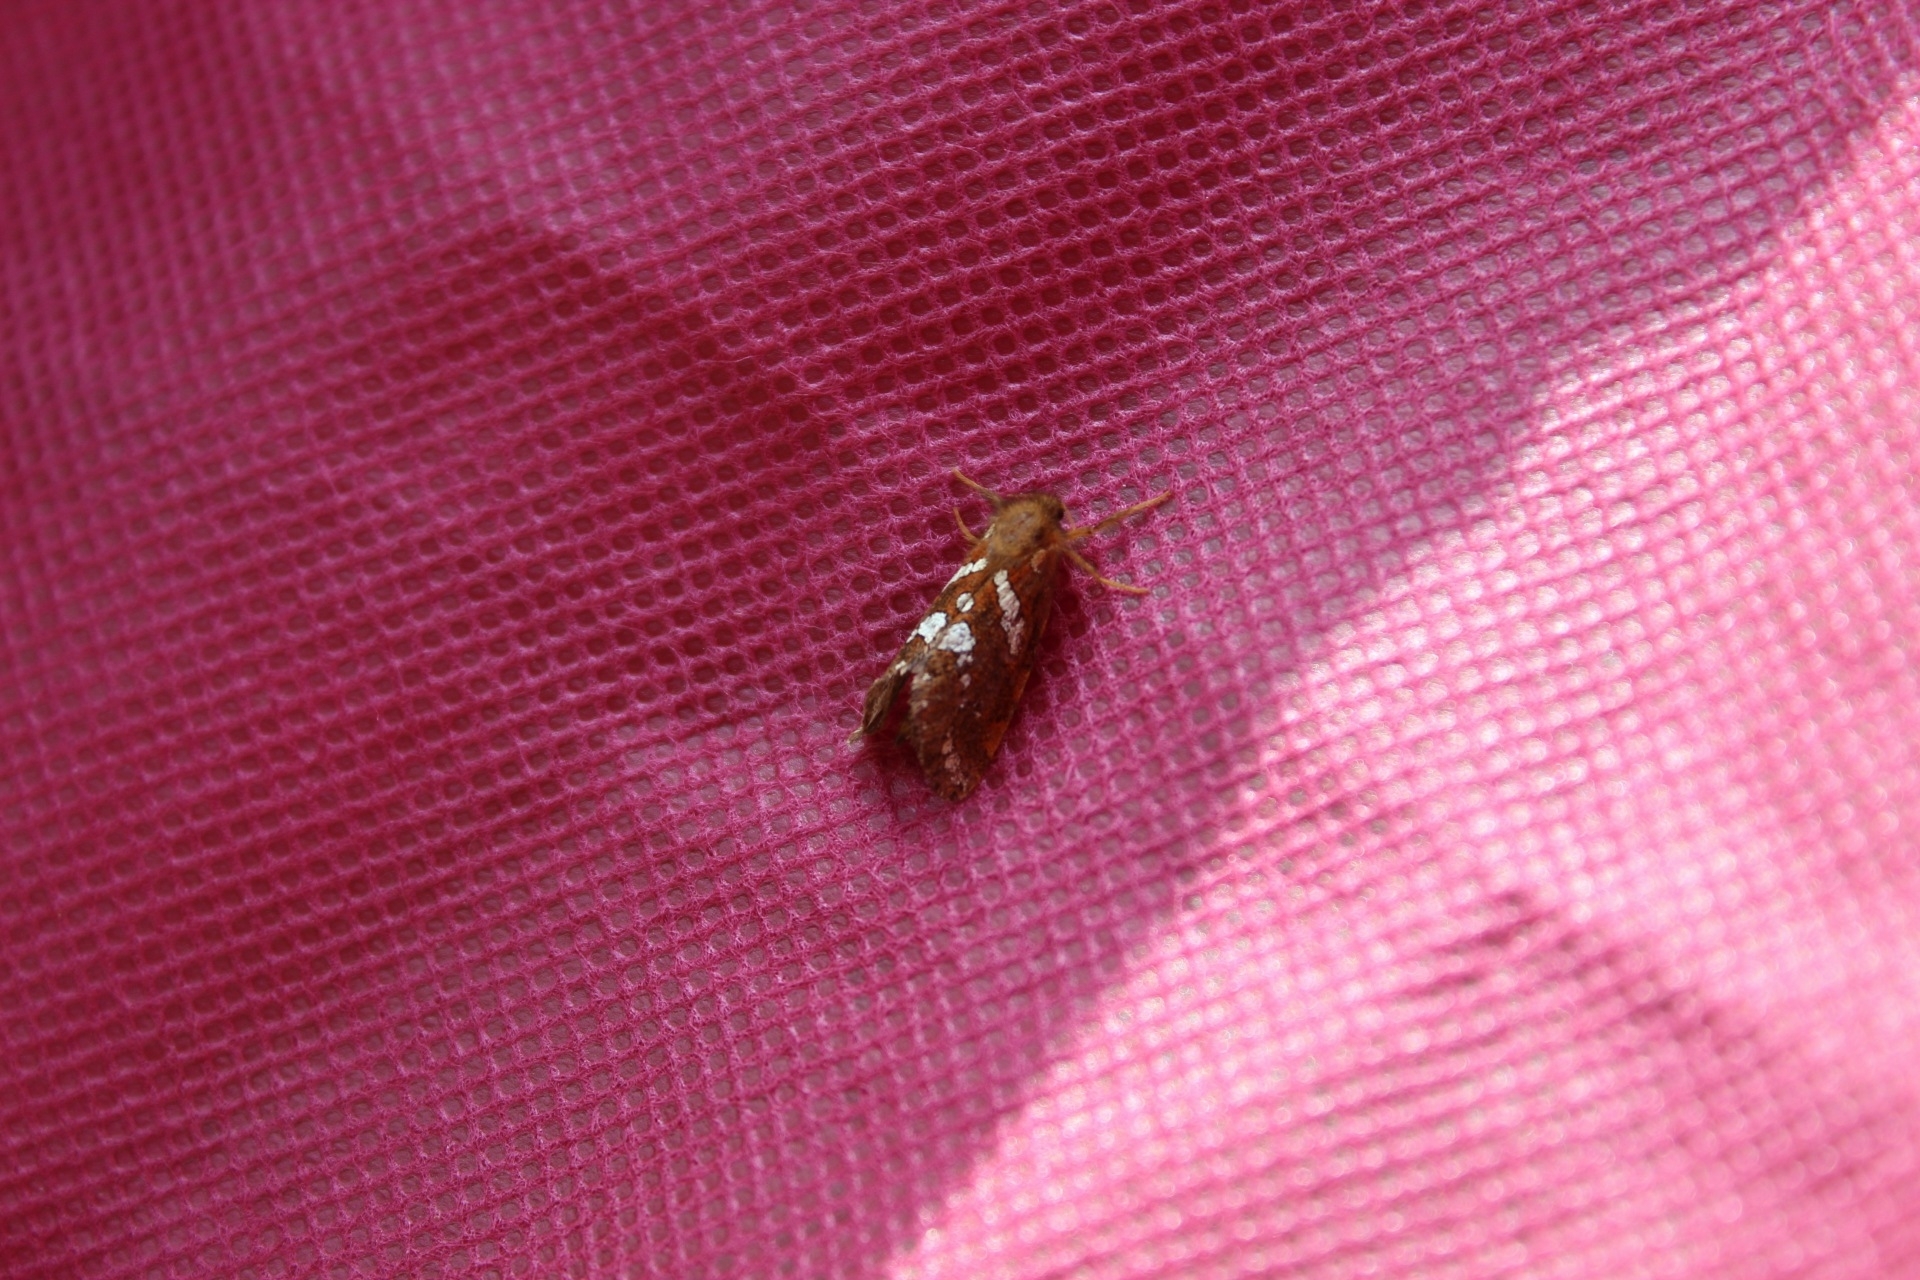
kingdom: Animalia
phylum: Arthropoda
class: Insecta
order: Lepidoptera
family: Hepialidae
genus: Phymatopus
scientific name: Phymatopus hecta
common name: Gold swift
